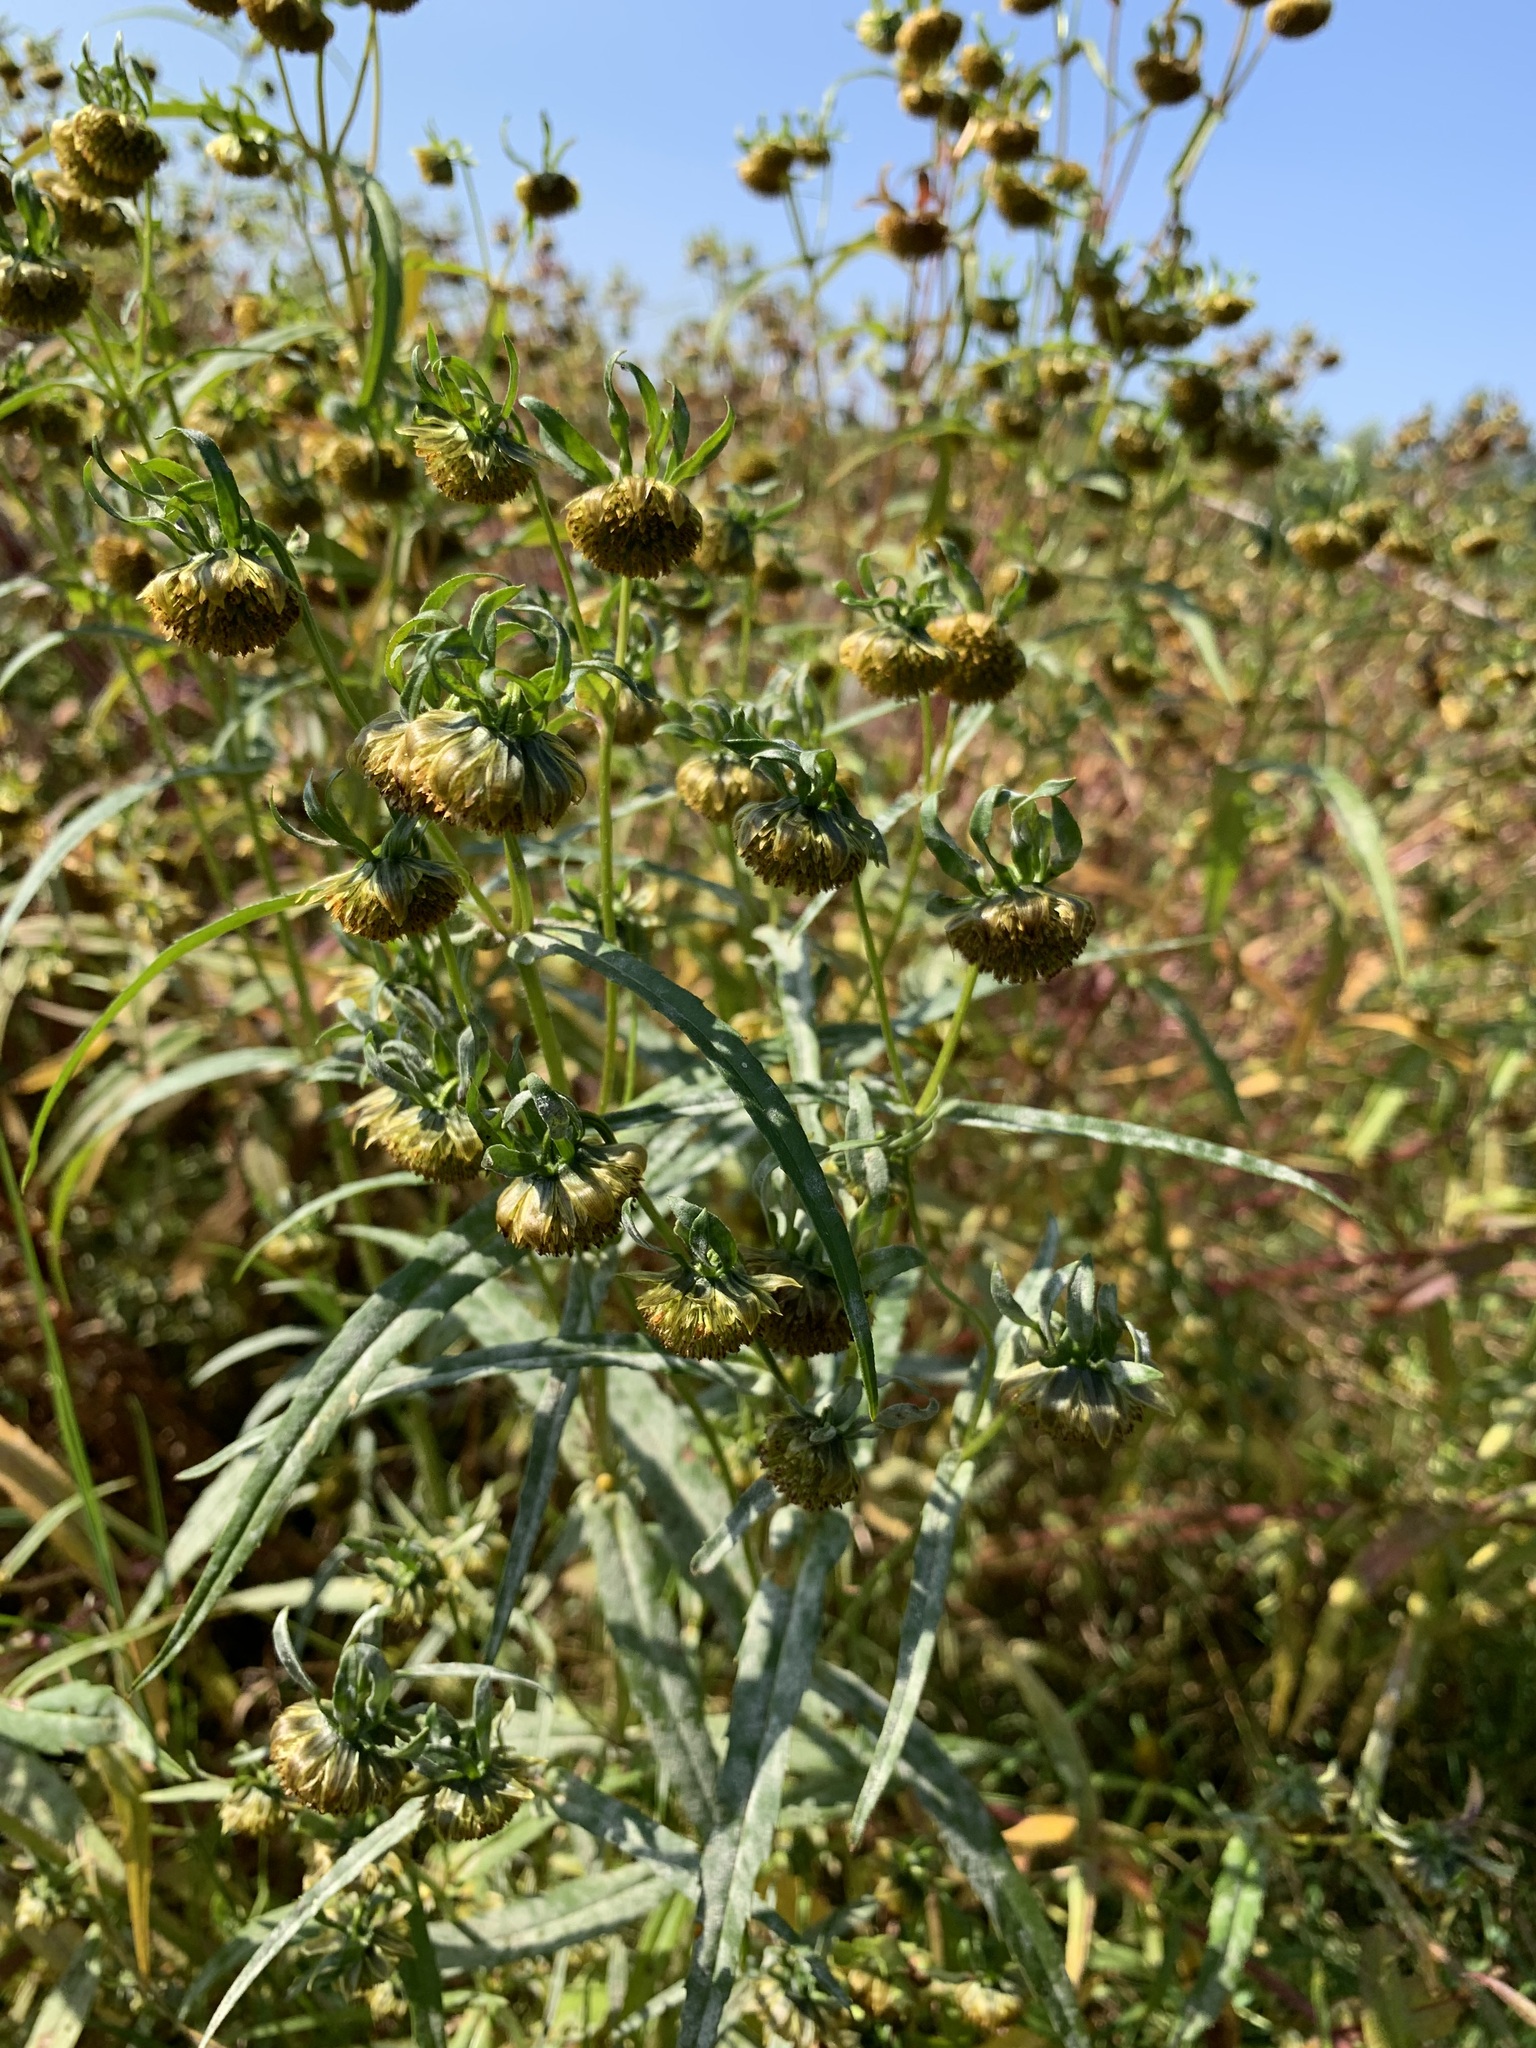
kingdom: Plantae
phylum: Tracheophyta
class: Magnoliopsida
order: Asterales
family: Asteraceae
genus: Bidens
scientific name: Bidens cernua
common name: Nodding bur-marigold
